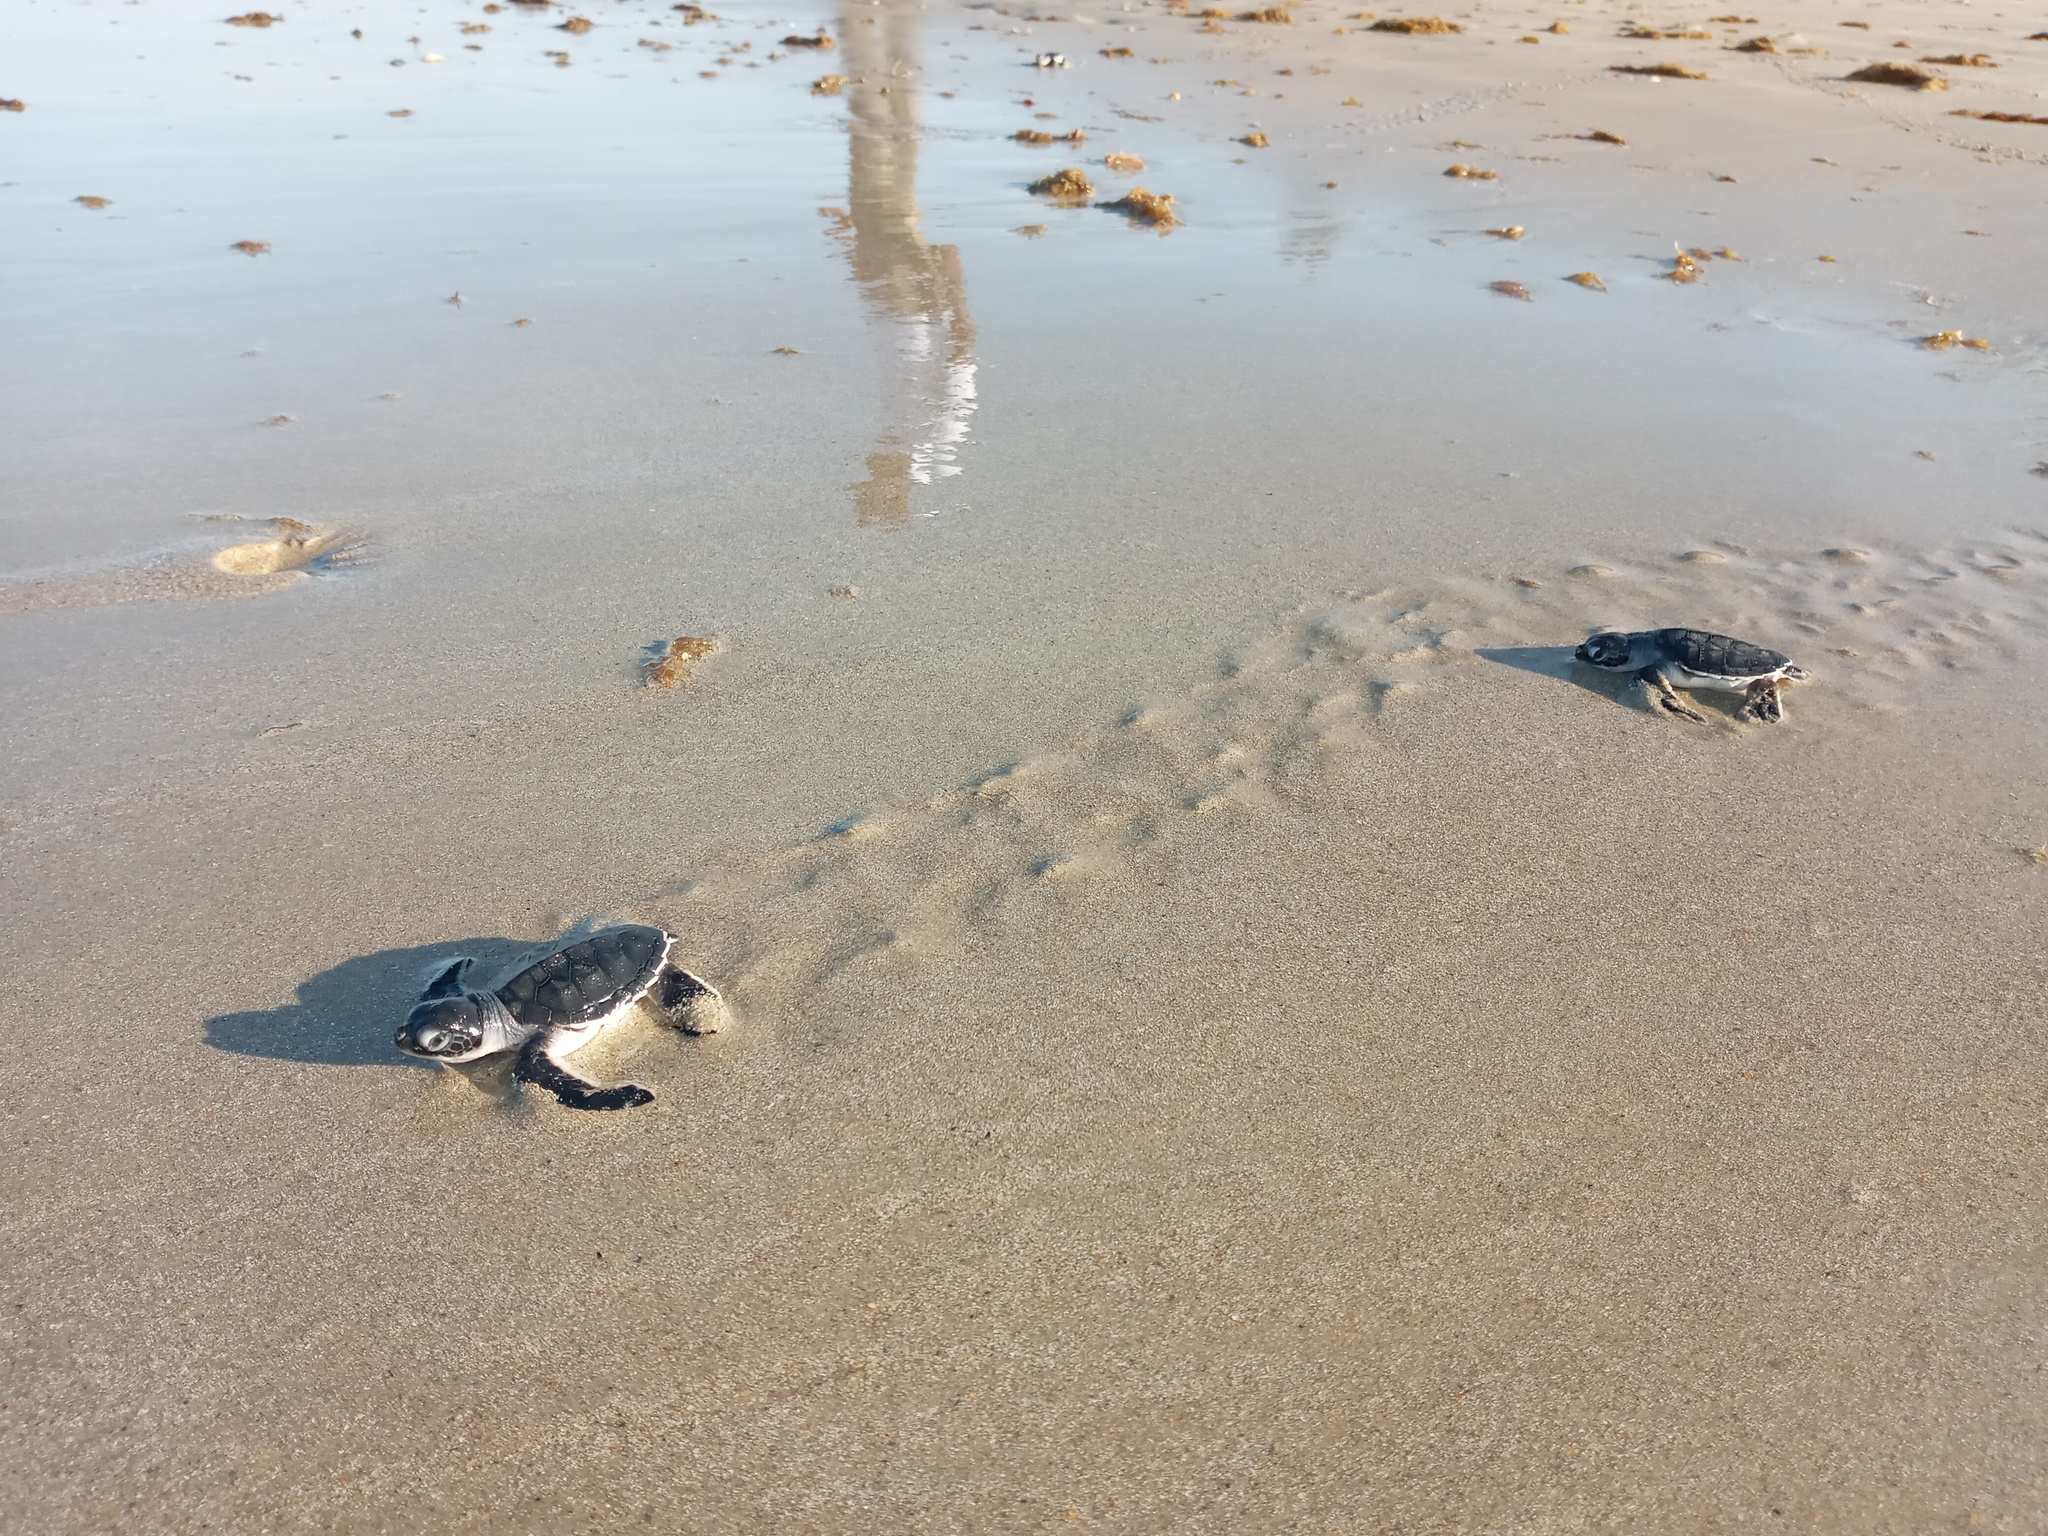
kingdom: Animalia
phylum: Chordata
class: Testudines
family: Cheloniidae
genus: Chelonia
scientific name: Chelonia mydas
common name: Green turtle
